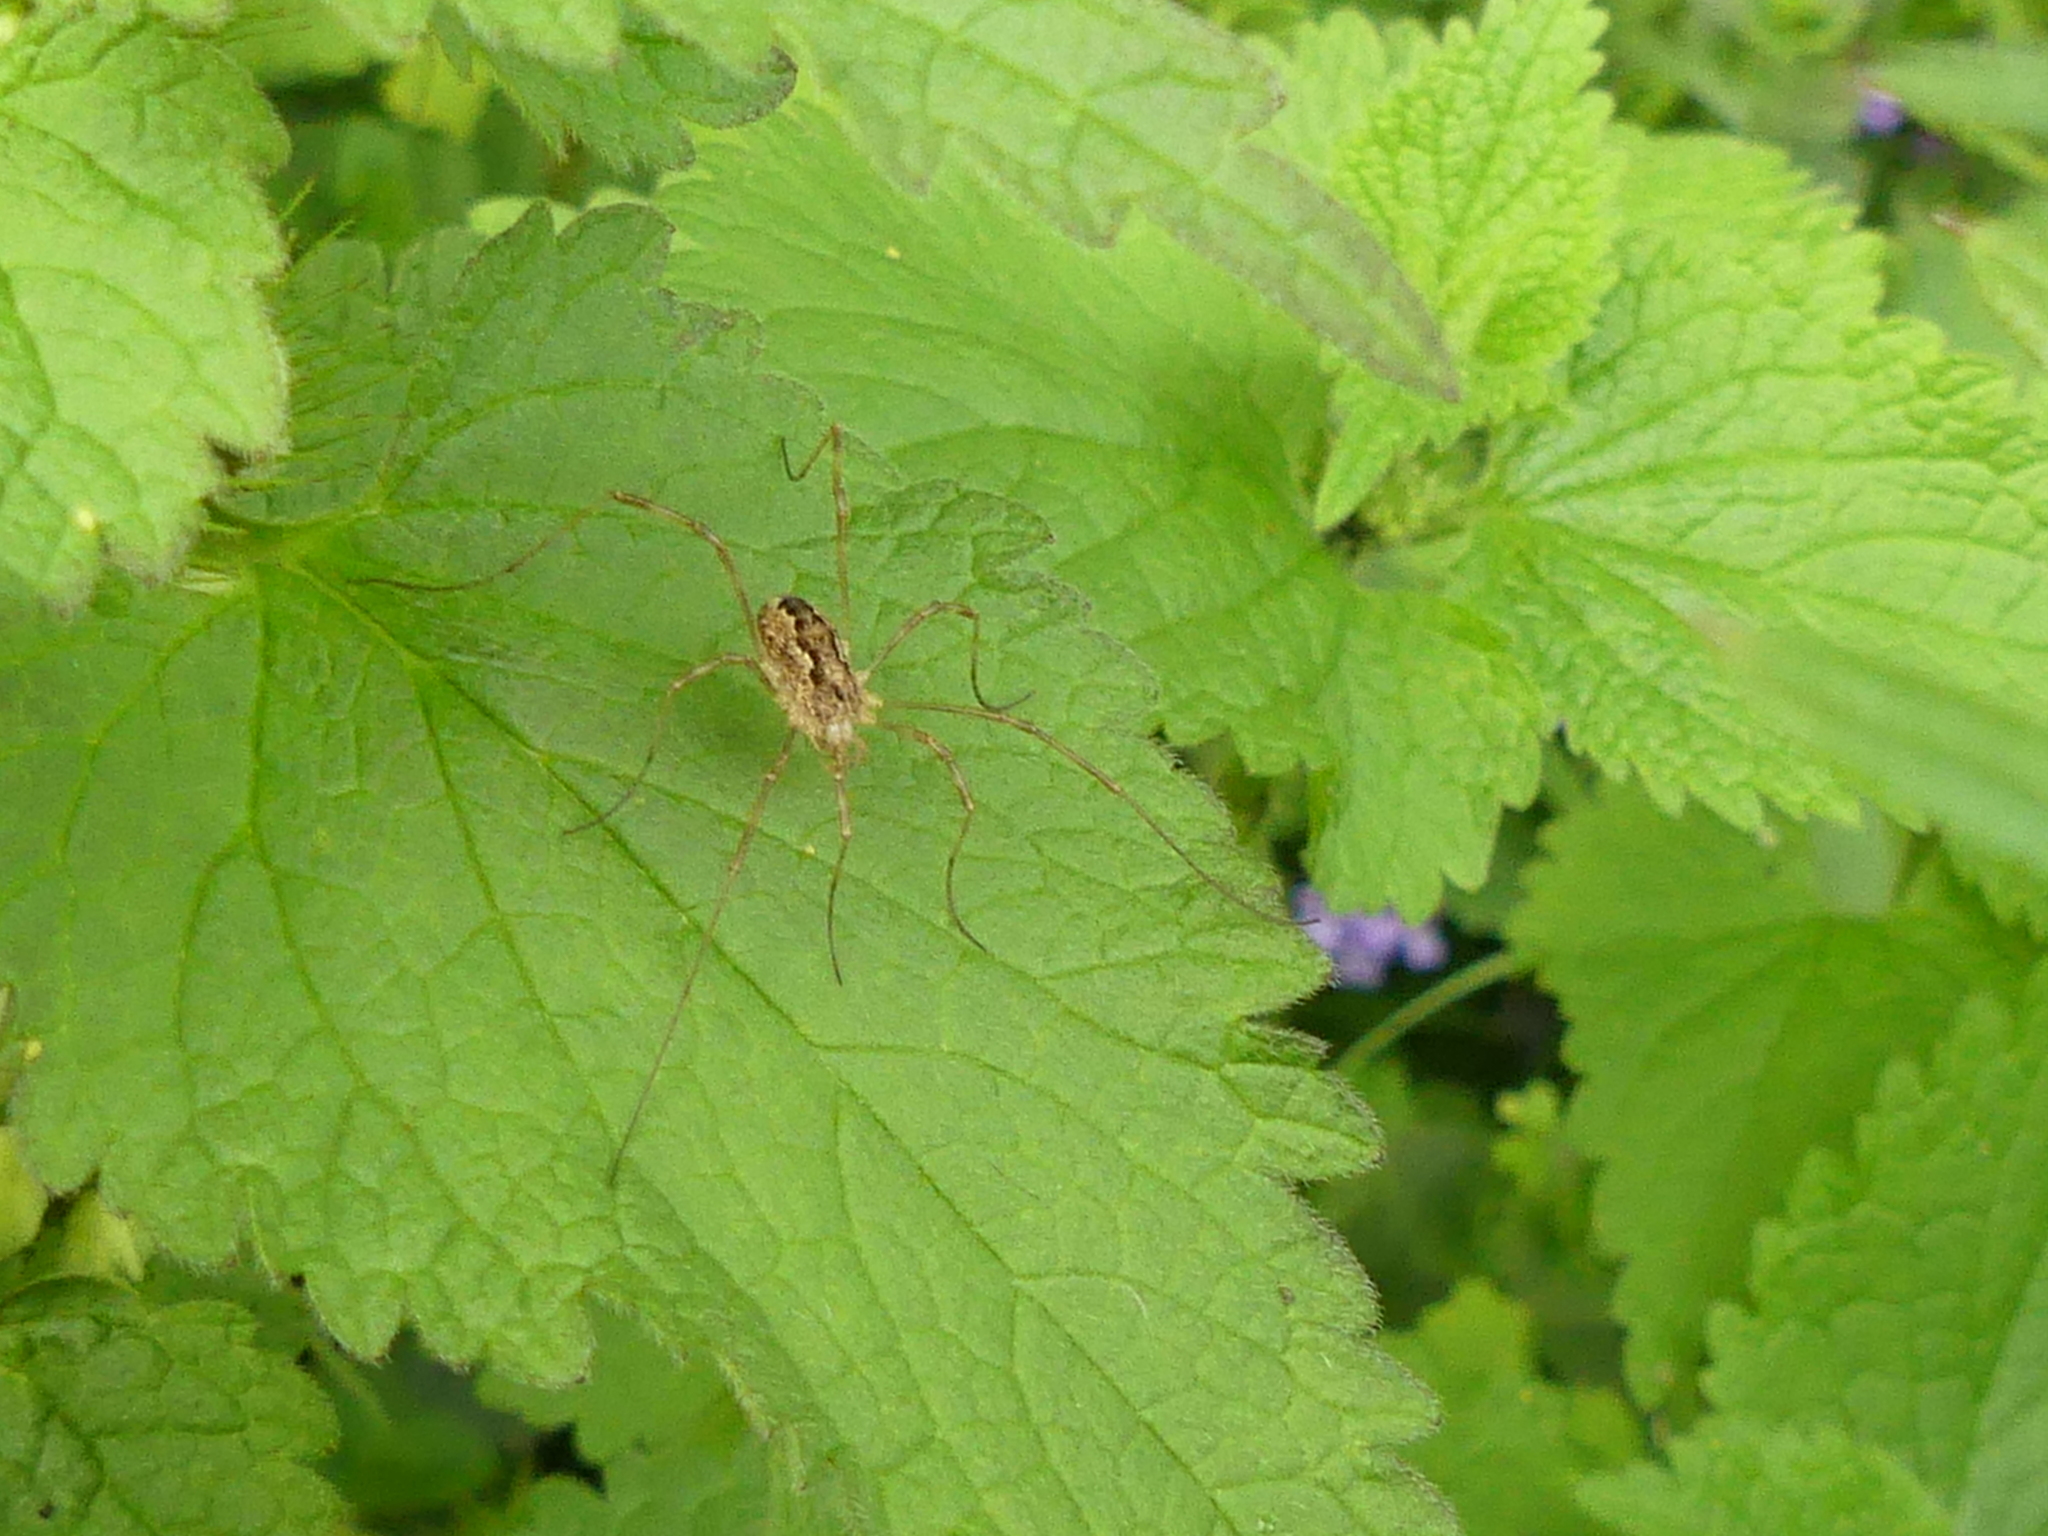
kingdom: Animalia
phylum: Arthropoda
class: Arachnida
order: Opiliones
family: Phalangiidae
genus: Rilaena
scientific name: Rilaena triangularis
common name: Spring harvestman
